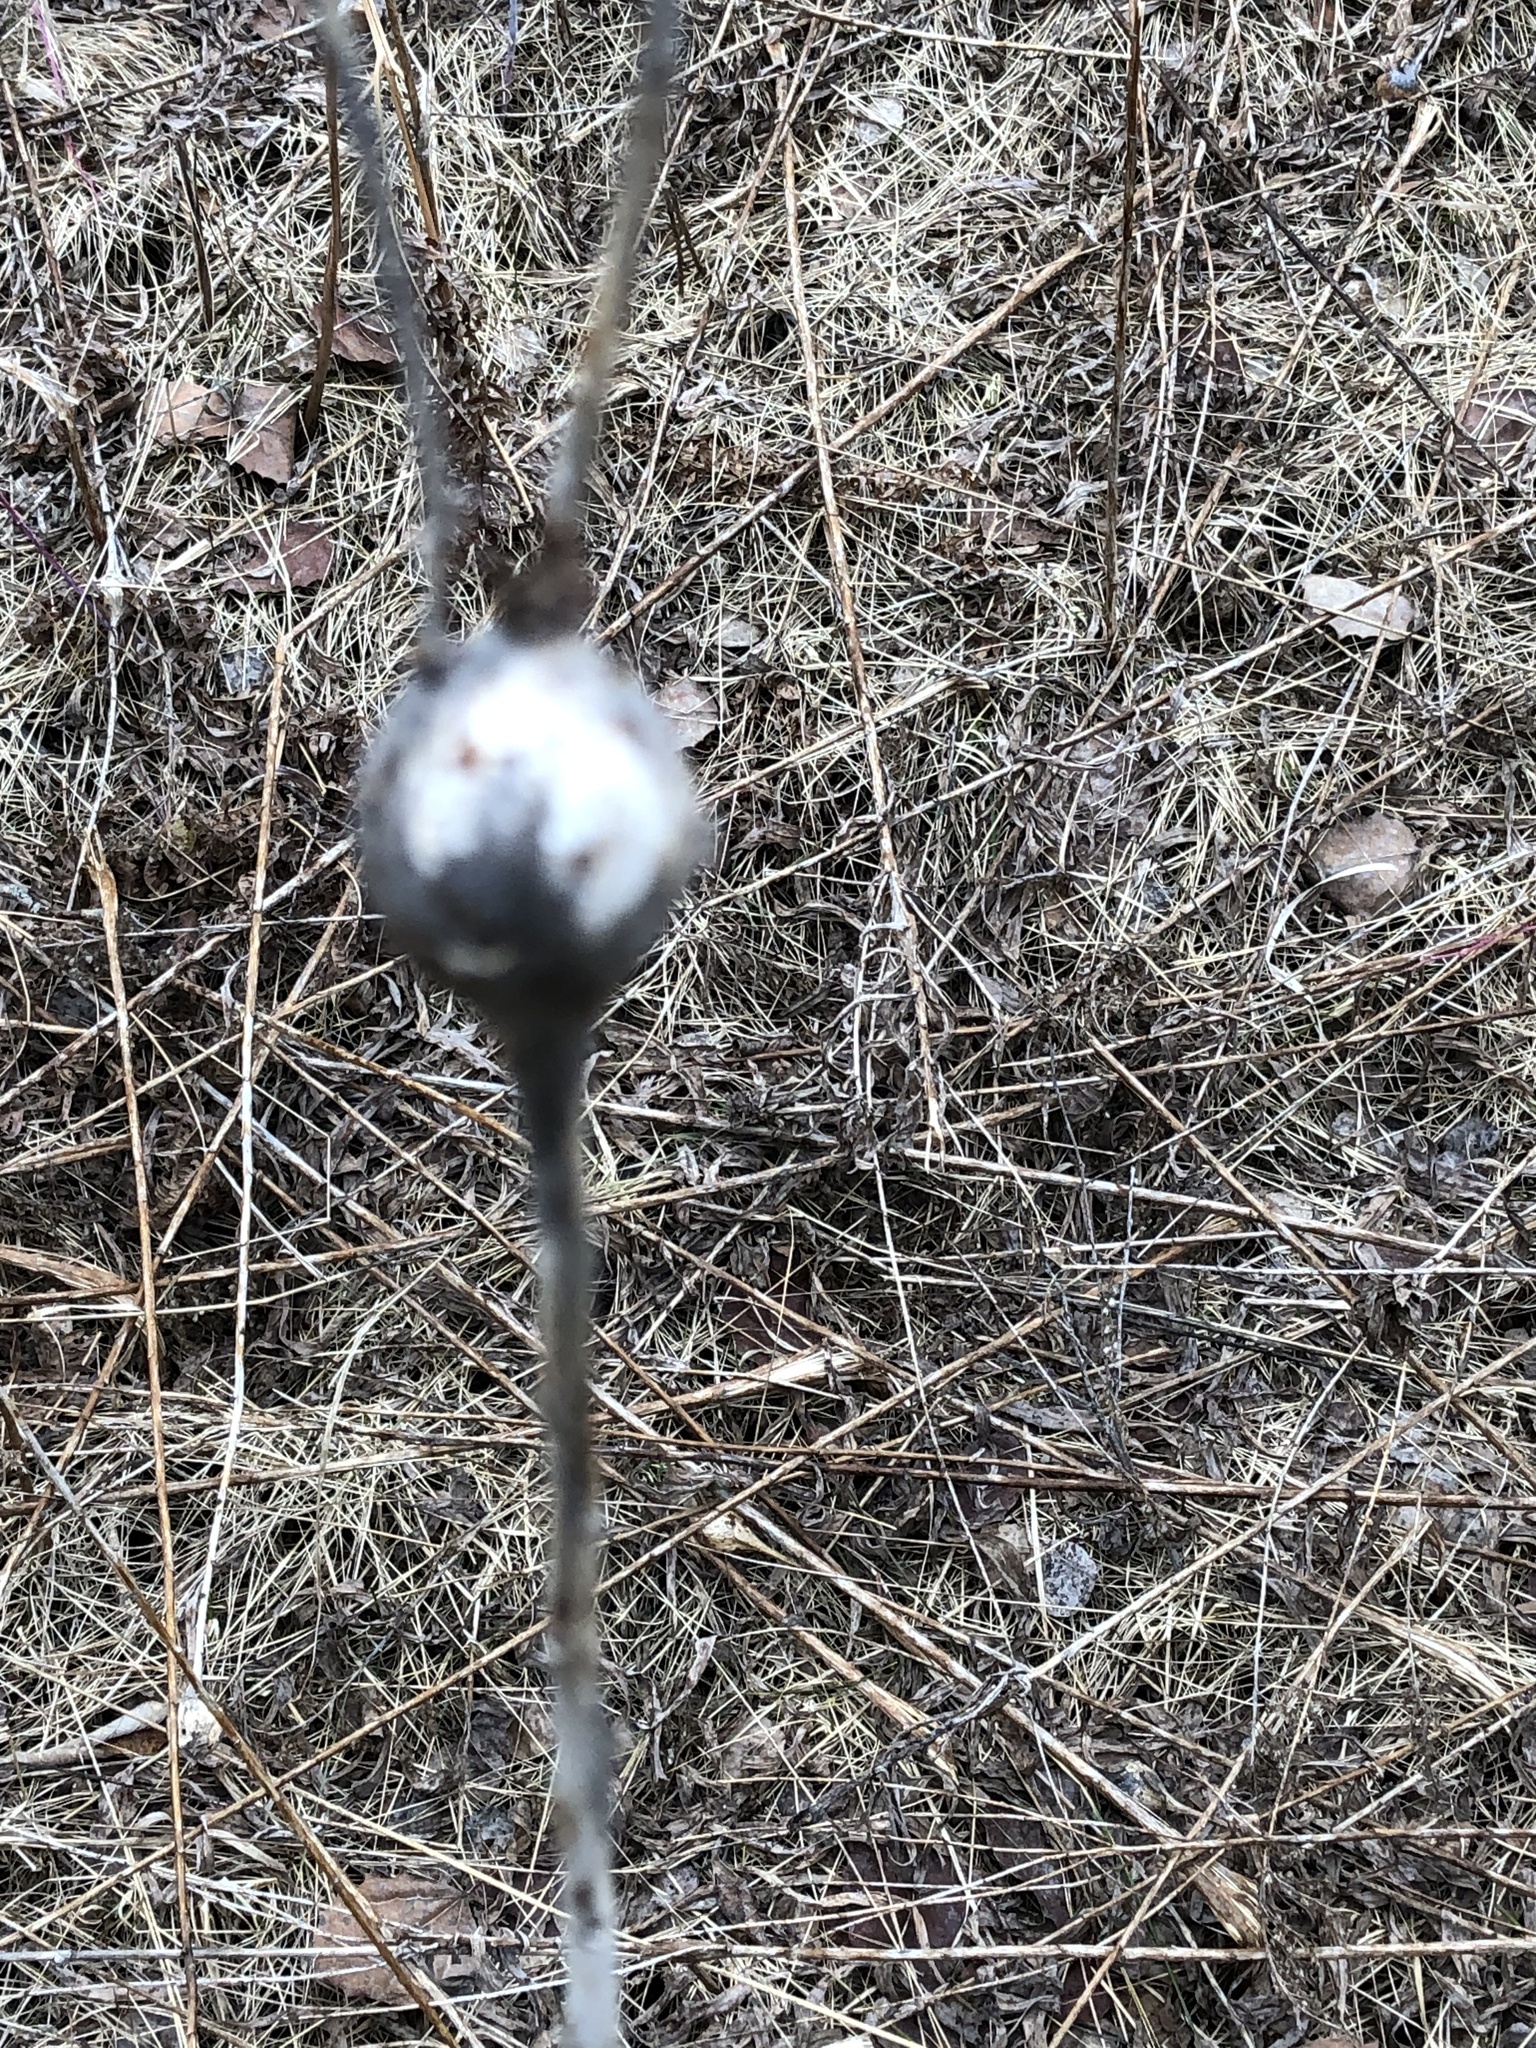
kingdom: Animalia
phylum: Arthropoda
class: Insecta
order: Diptera
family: Tephritidae
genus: Eurosta
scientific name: Eurosta solidaginis
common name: Goldenrod gall fly
